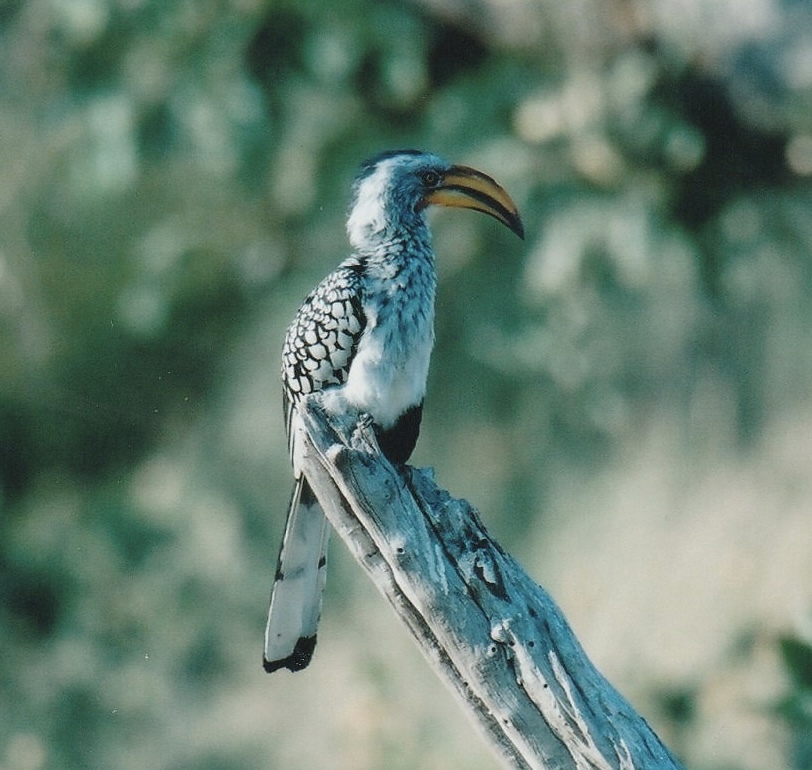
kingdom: Animalia
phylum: Chordata
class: Aves
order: Bucerotiformes
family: Bucerotidae
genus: Tockus
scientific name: Tockus leucomelas
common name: Southern yellow-billed hornbill
